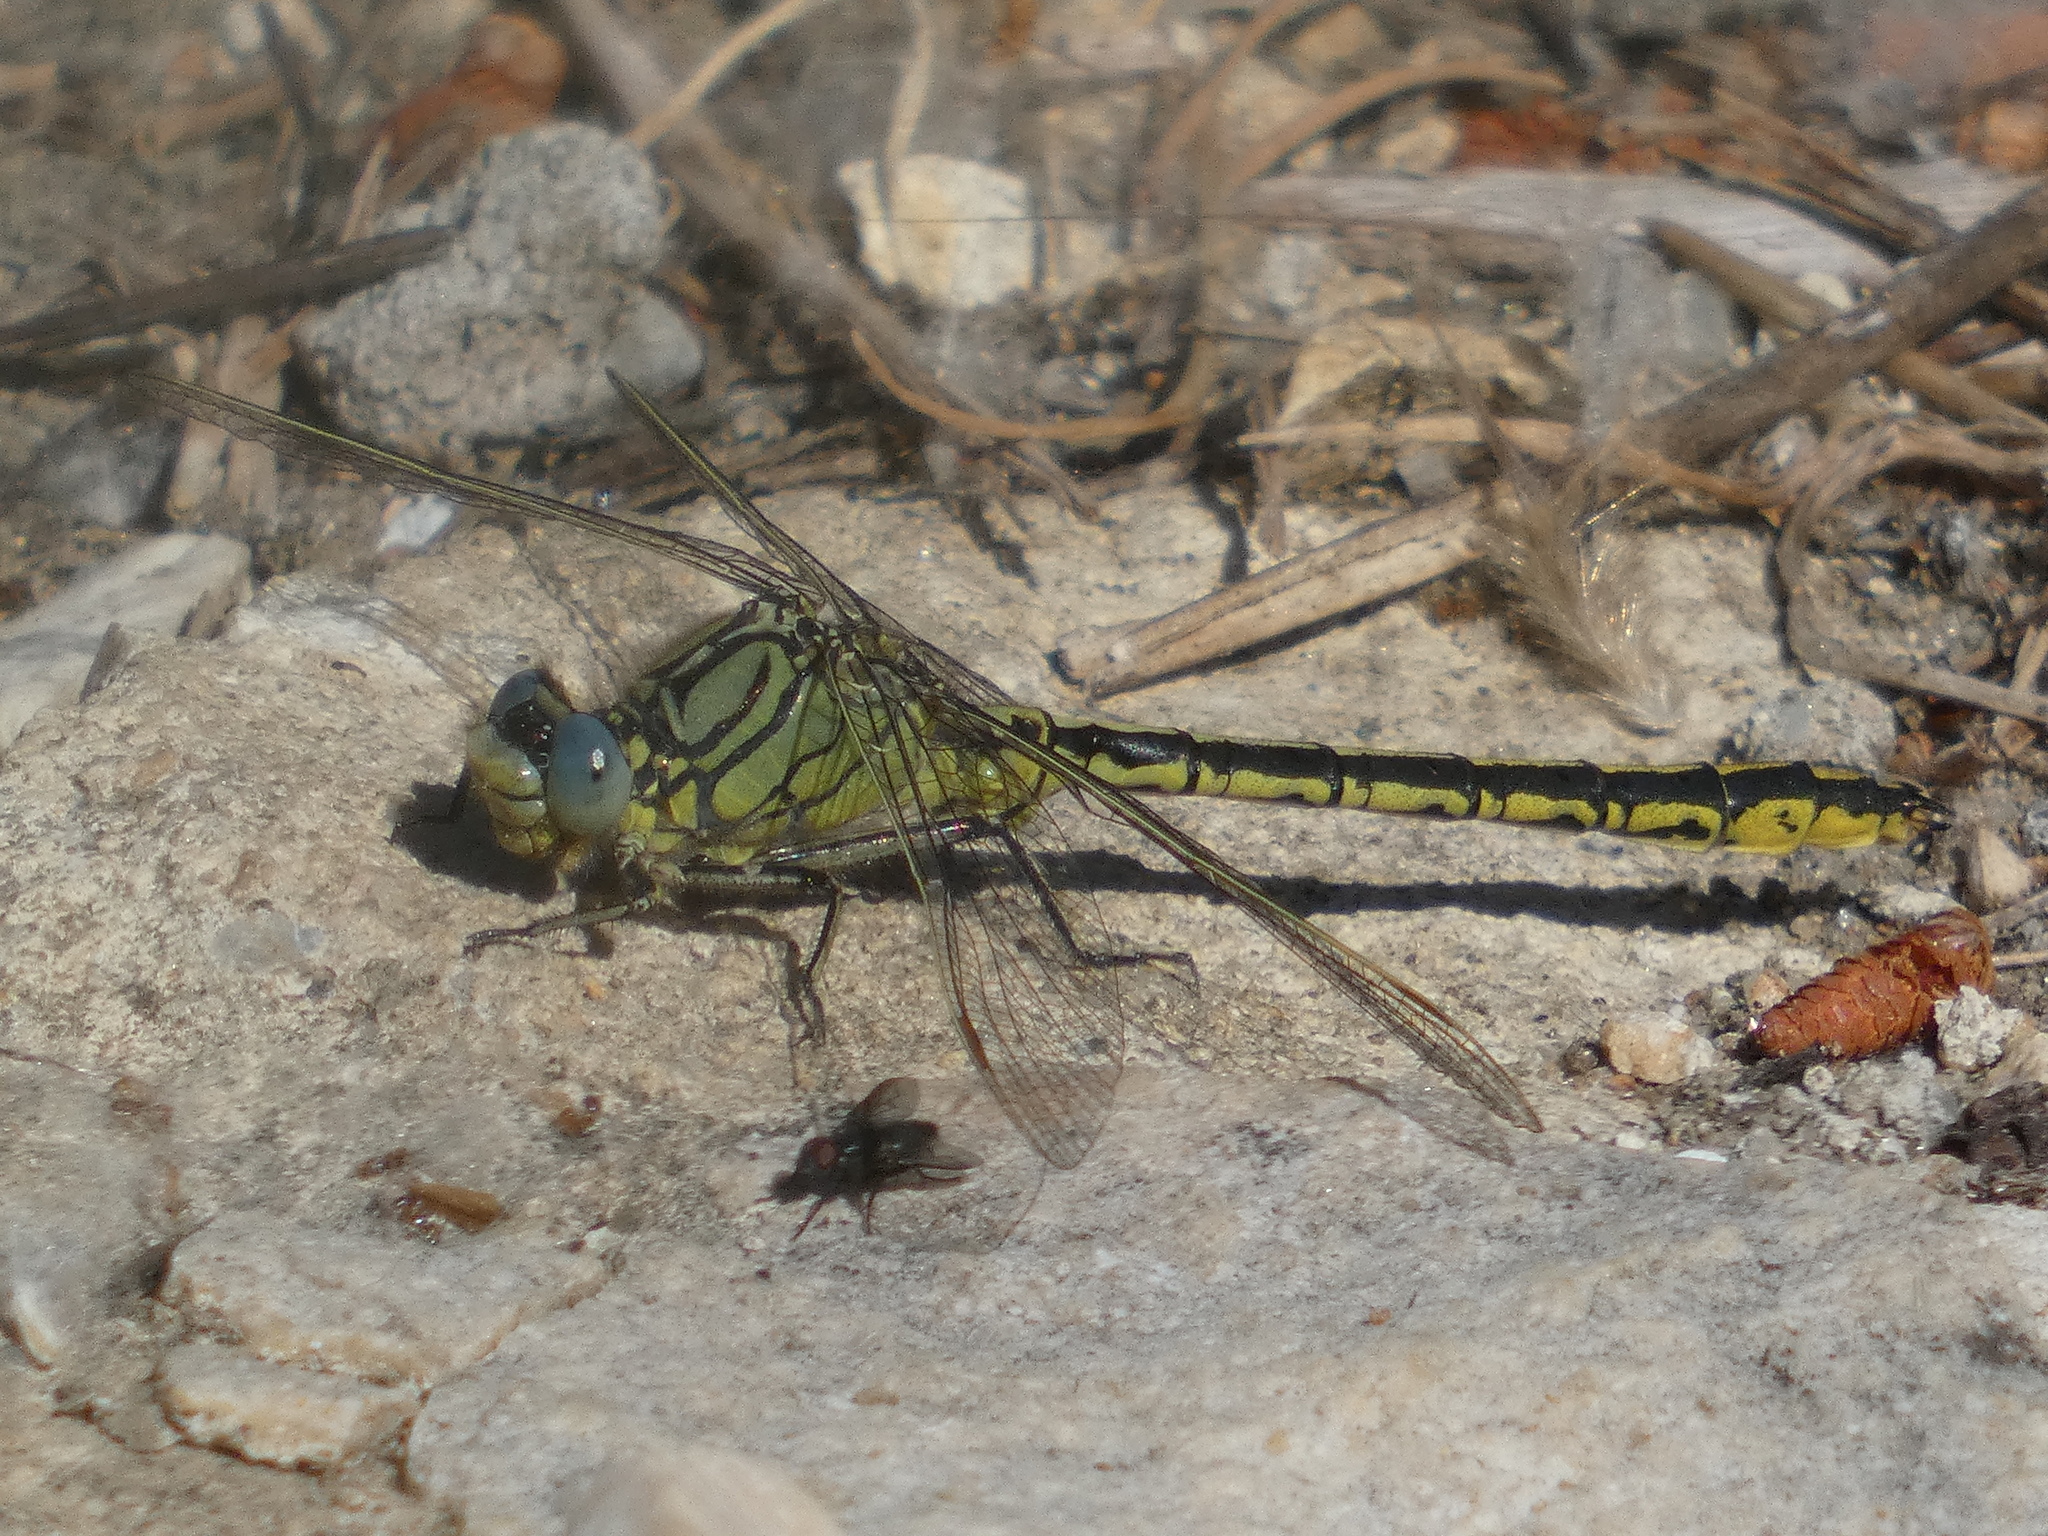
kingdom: Animalia
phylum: Arthropoda
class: Insecta
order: Odonata
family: Gomphidae
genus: Gomphus
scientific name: Gomphus pulchellus
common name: Western clubtail
